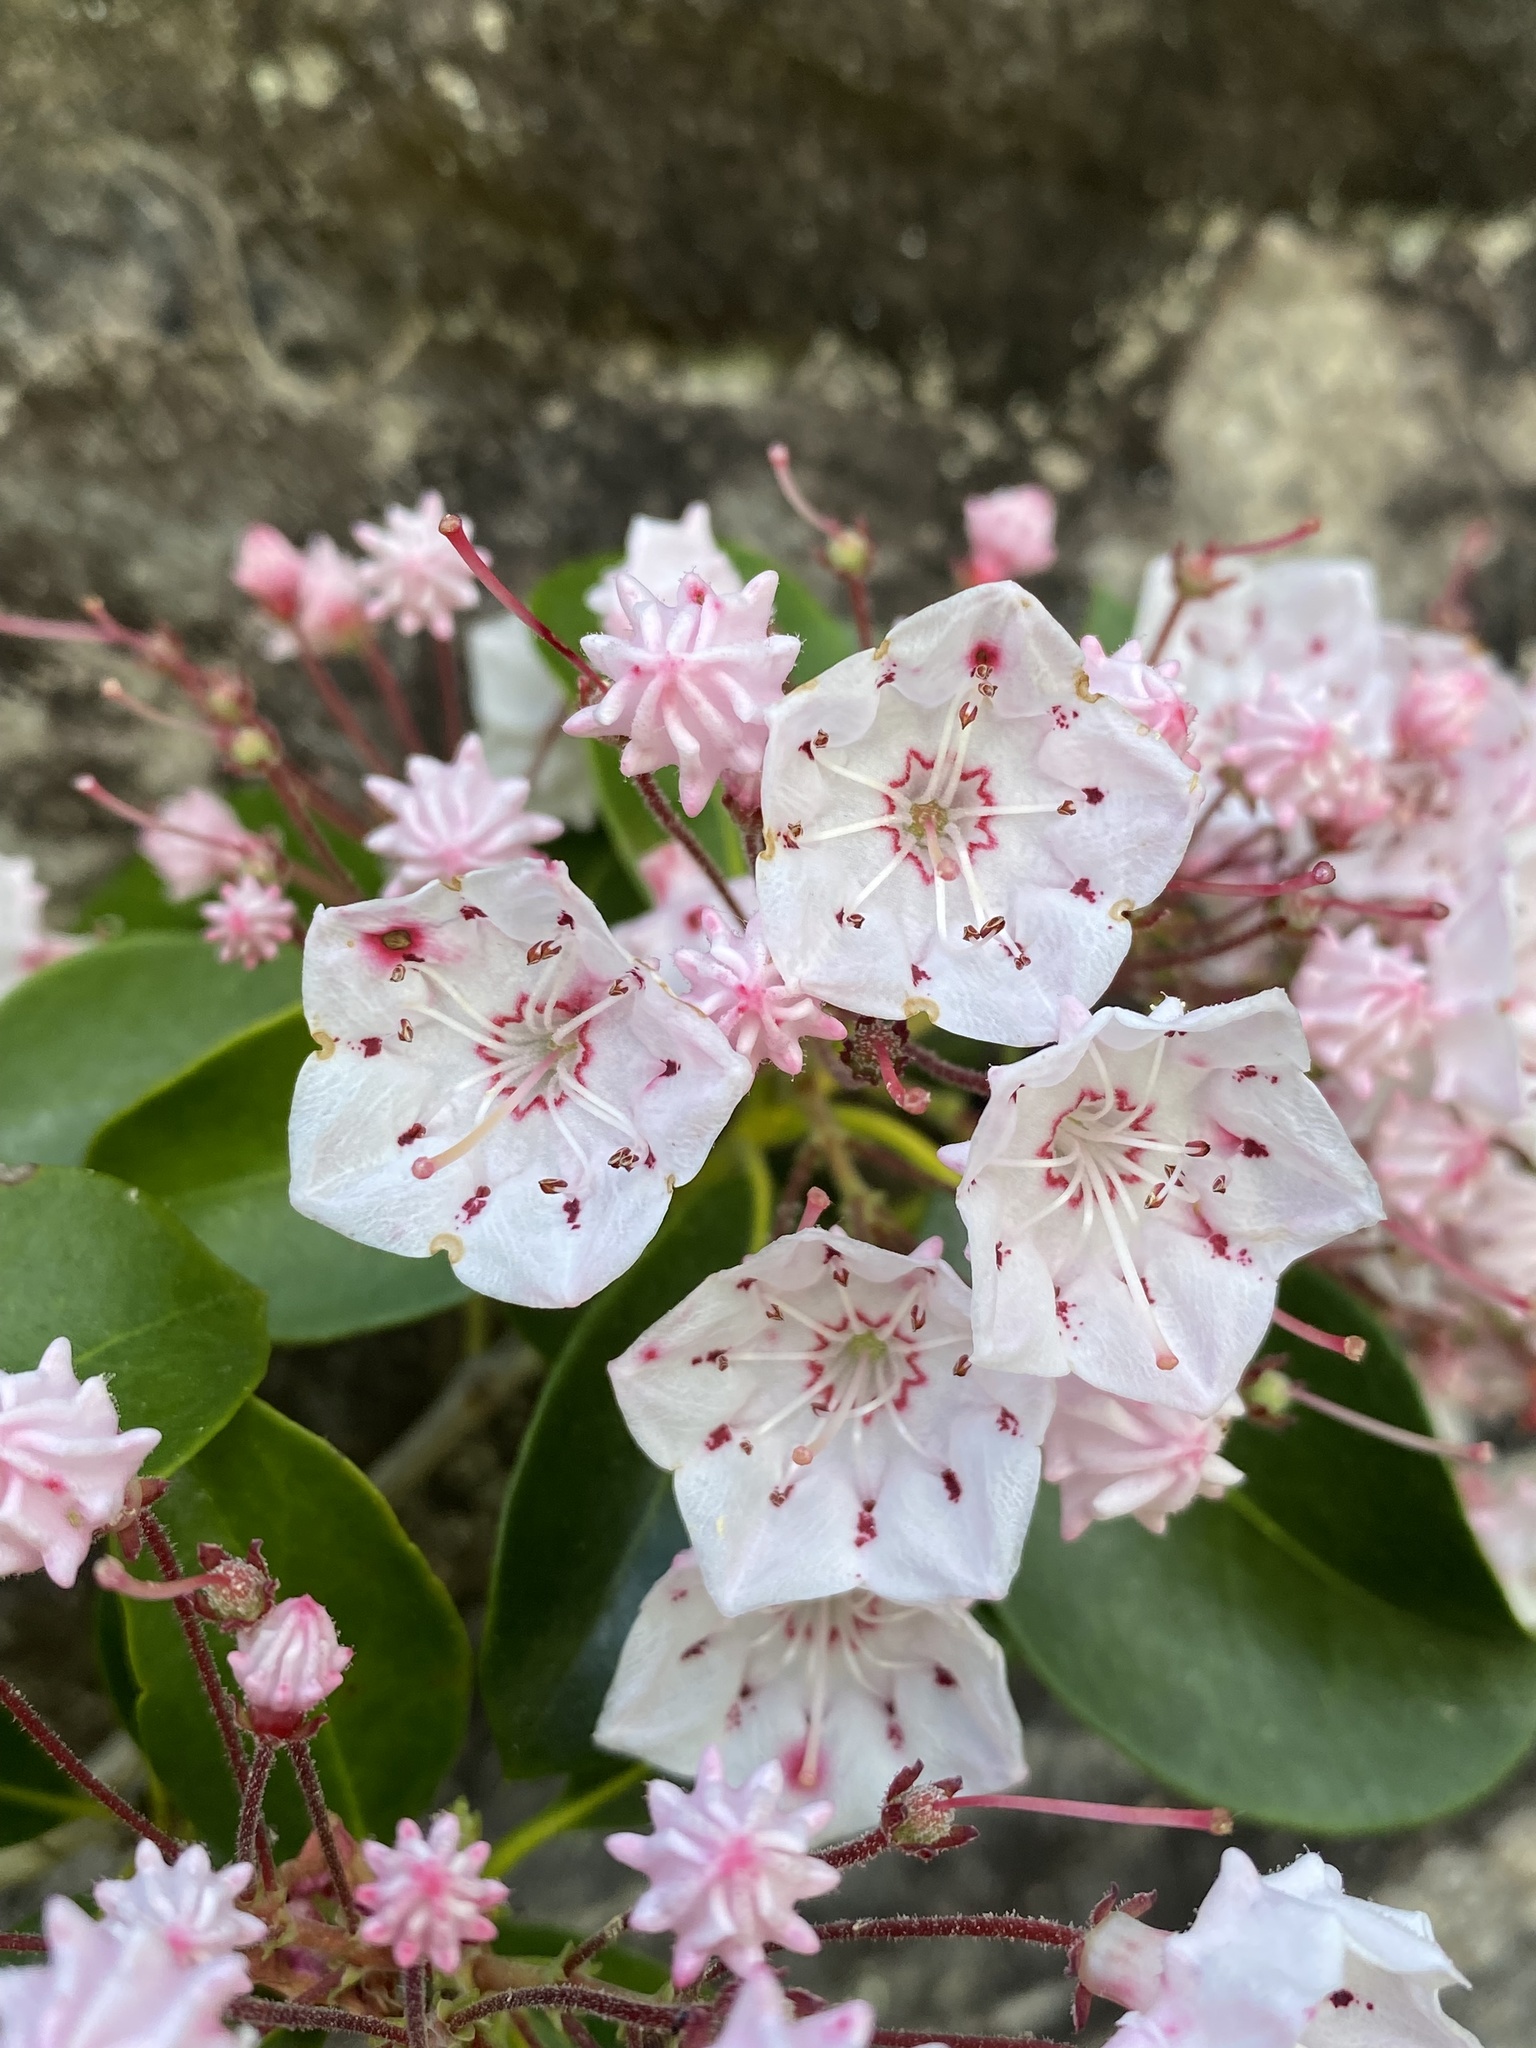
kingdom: Plantae
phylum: Tracheophyta
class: Magnoliopsida
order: Ericales
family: Ericaceae
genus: Kalmia
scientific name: Kalmia latifolia
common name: Mountain-laurel
